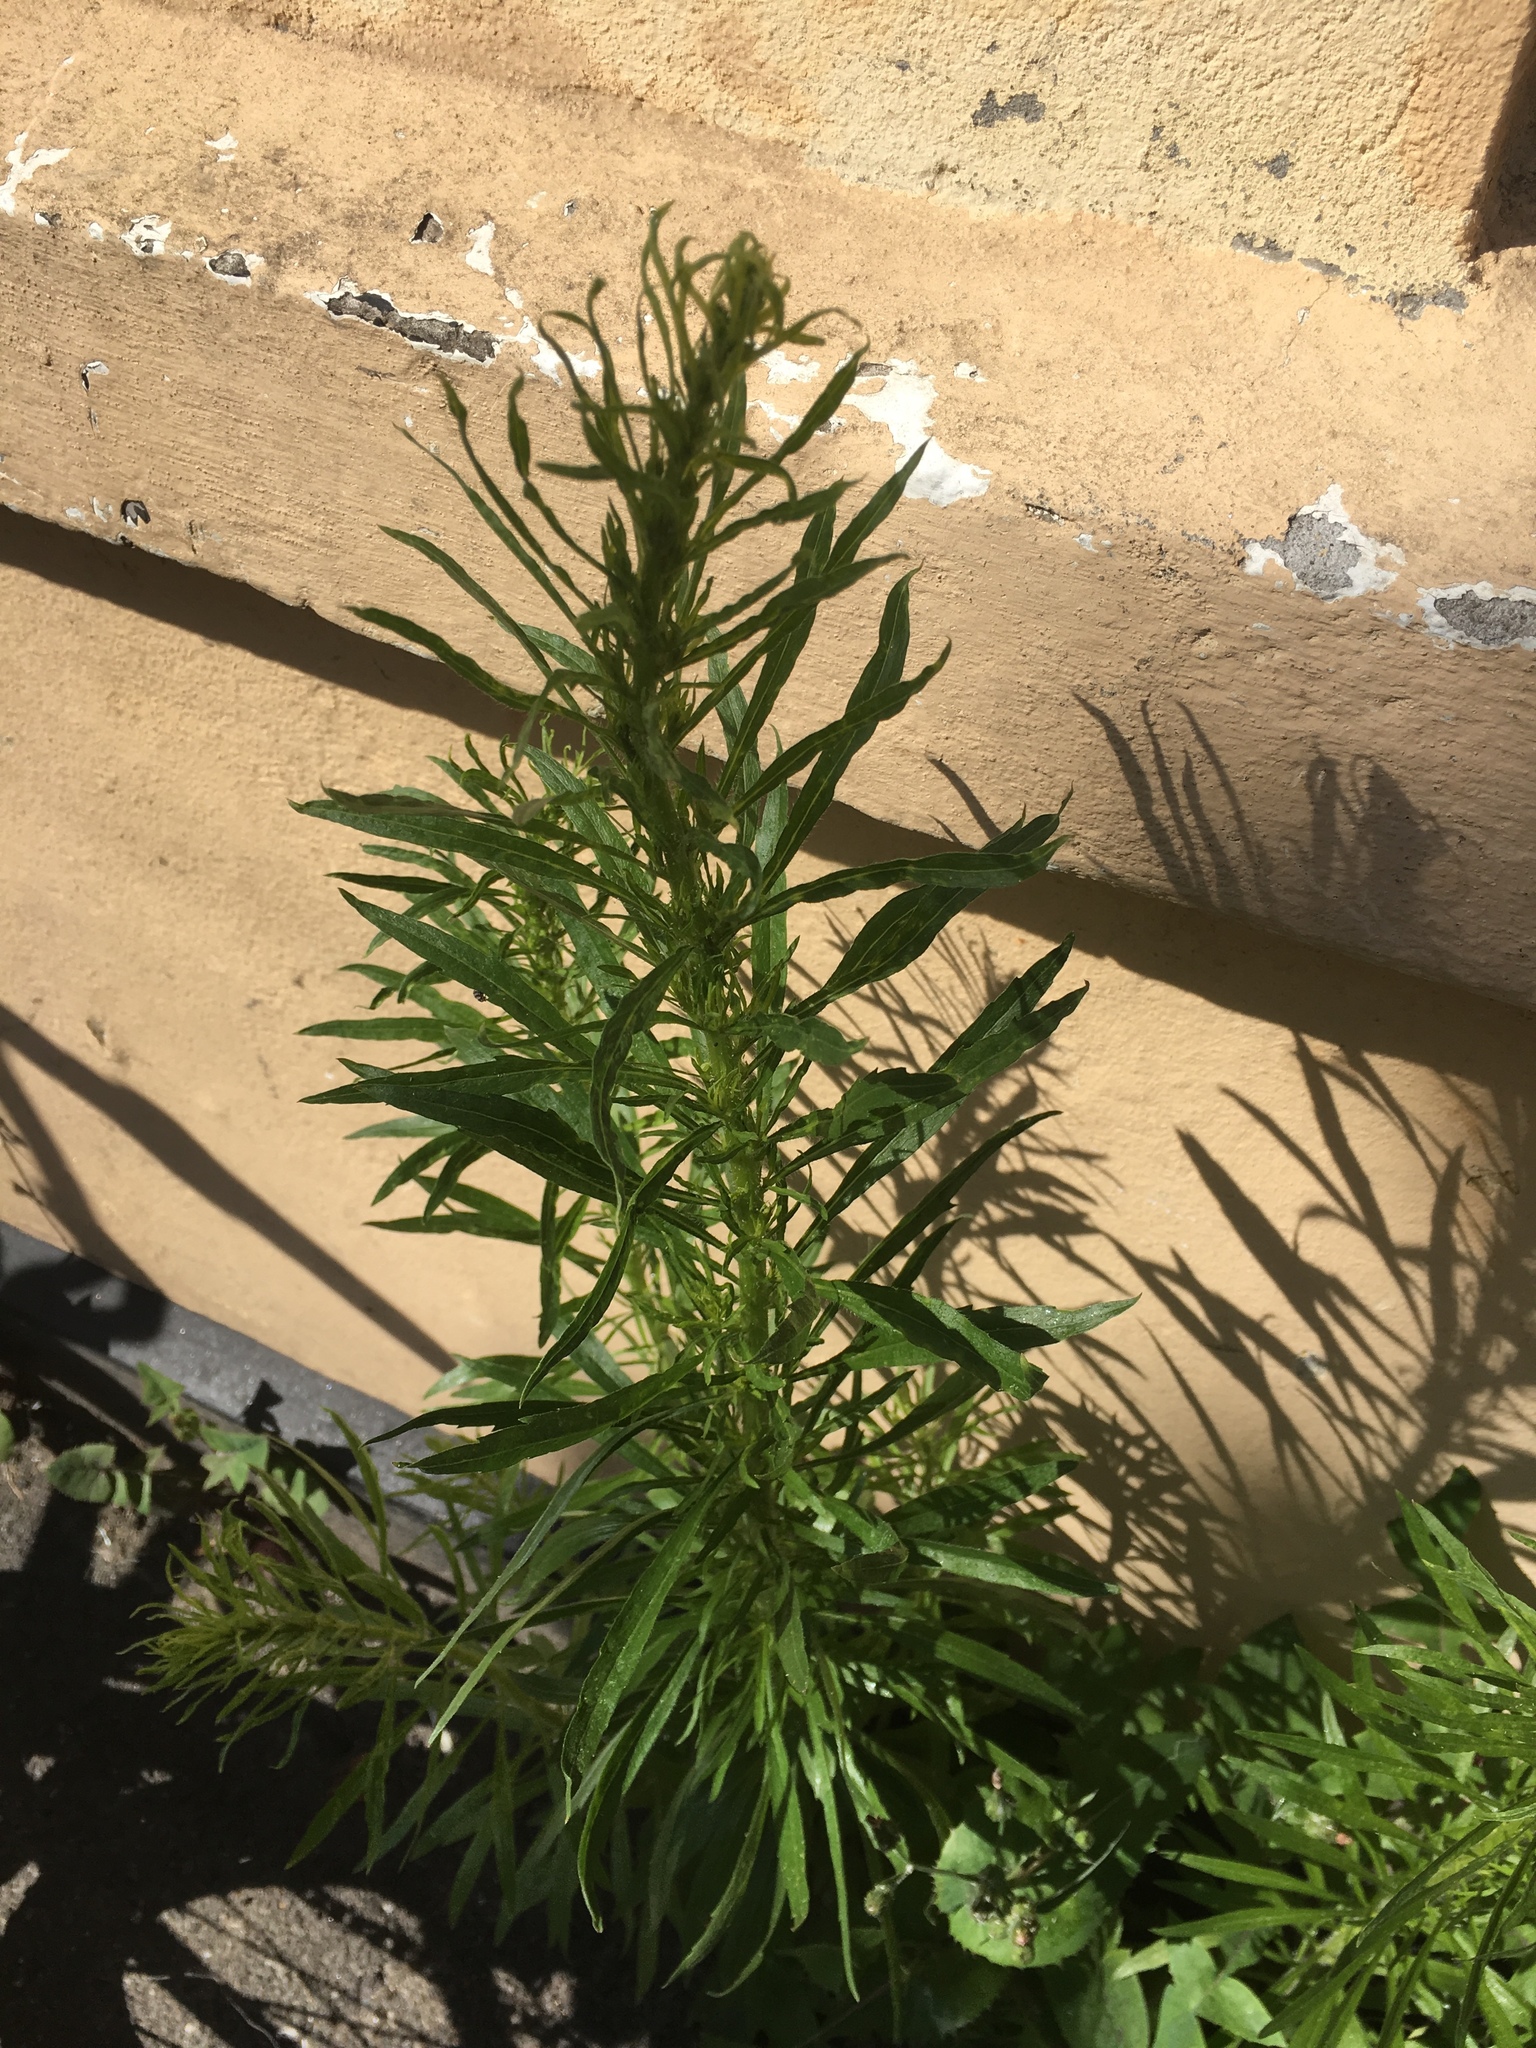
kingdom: Plantae
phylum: Tracheophyta
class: Magnoliopsida
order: Asterales
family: Asteraceae
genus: Erigeron
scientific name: Erigeron canadensis
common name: Canadian fleabane
